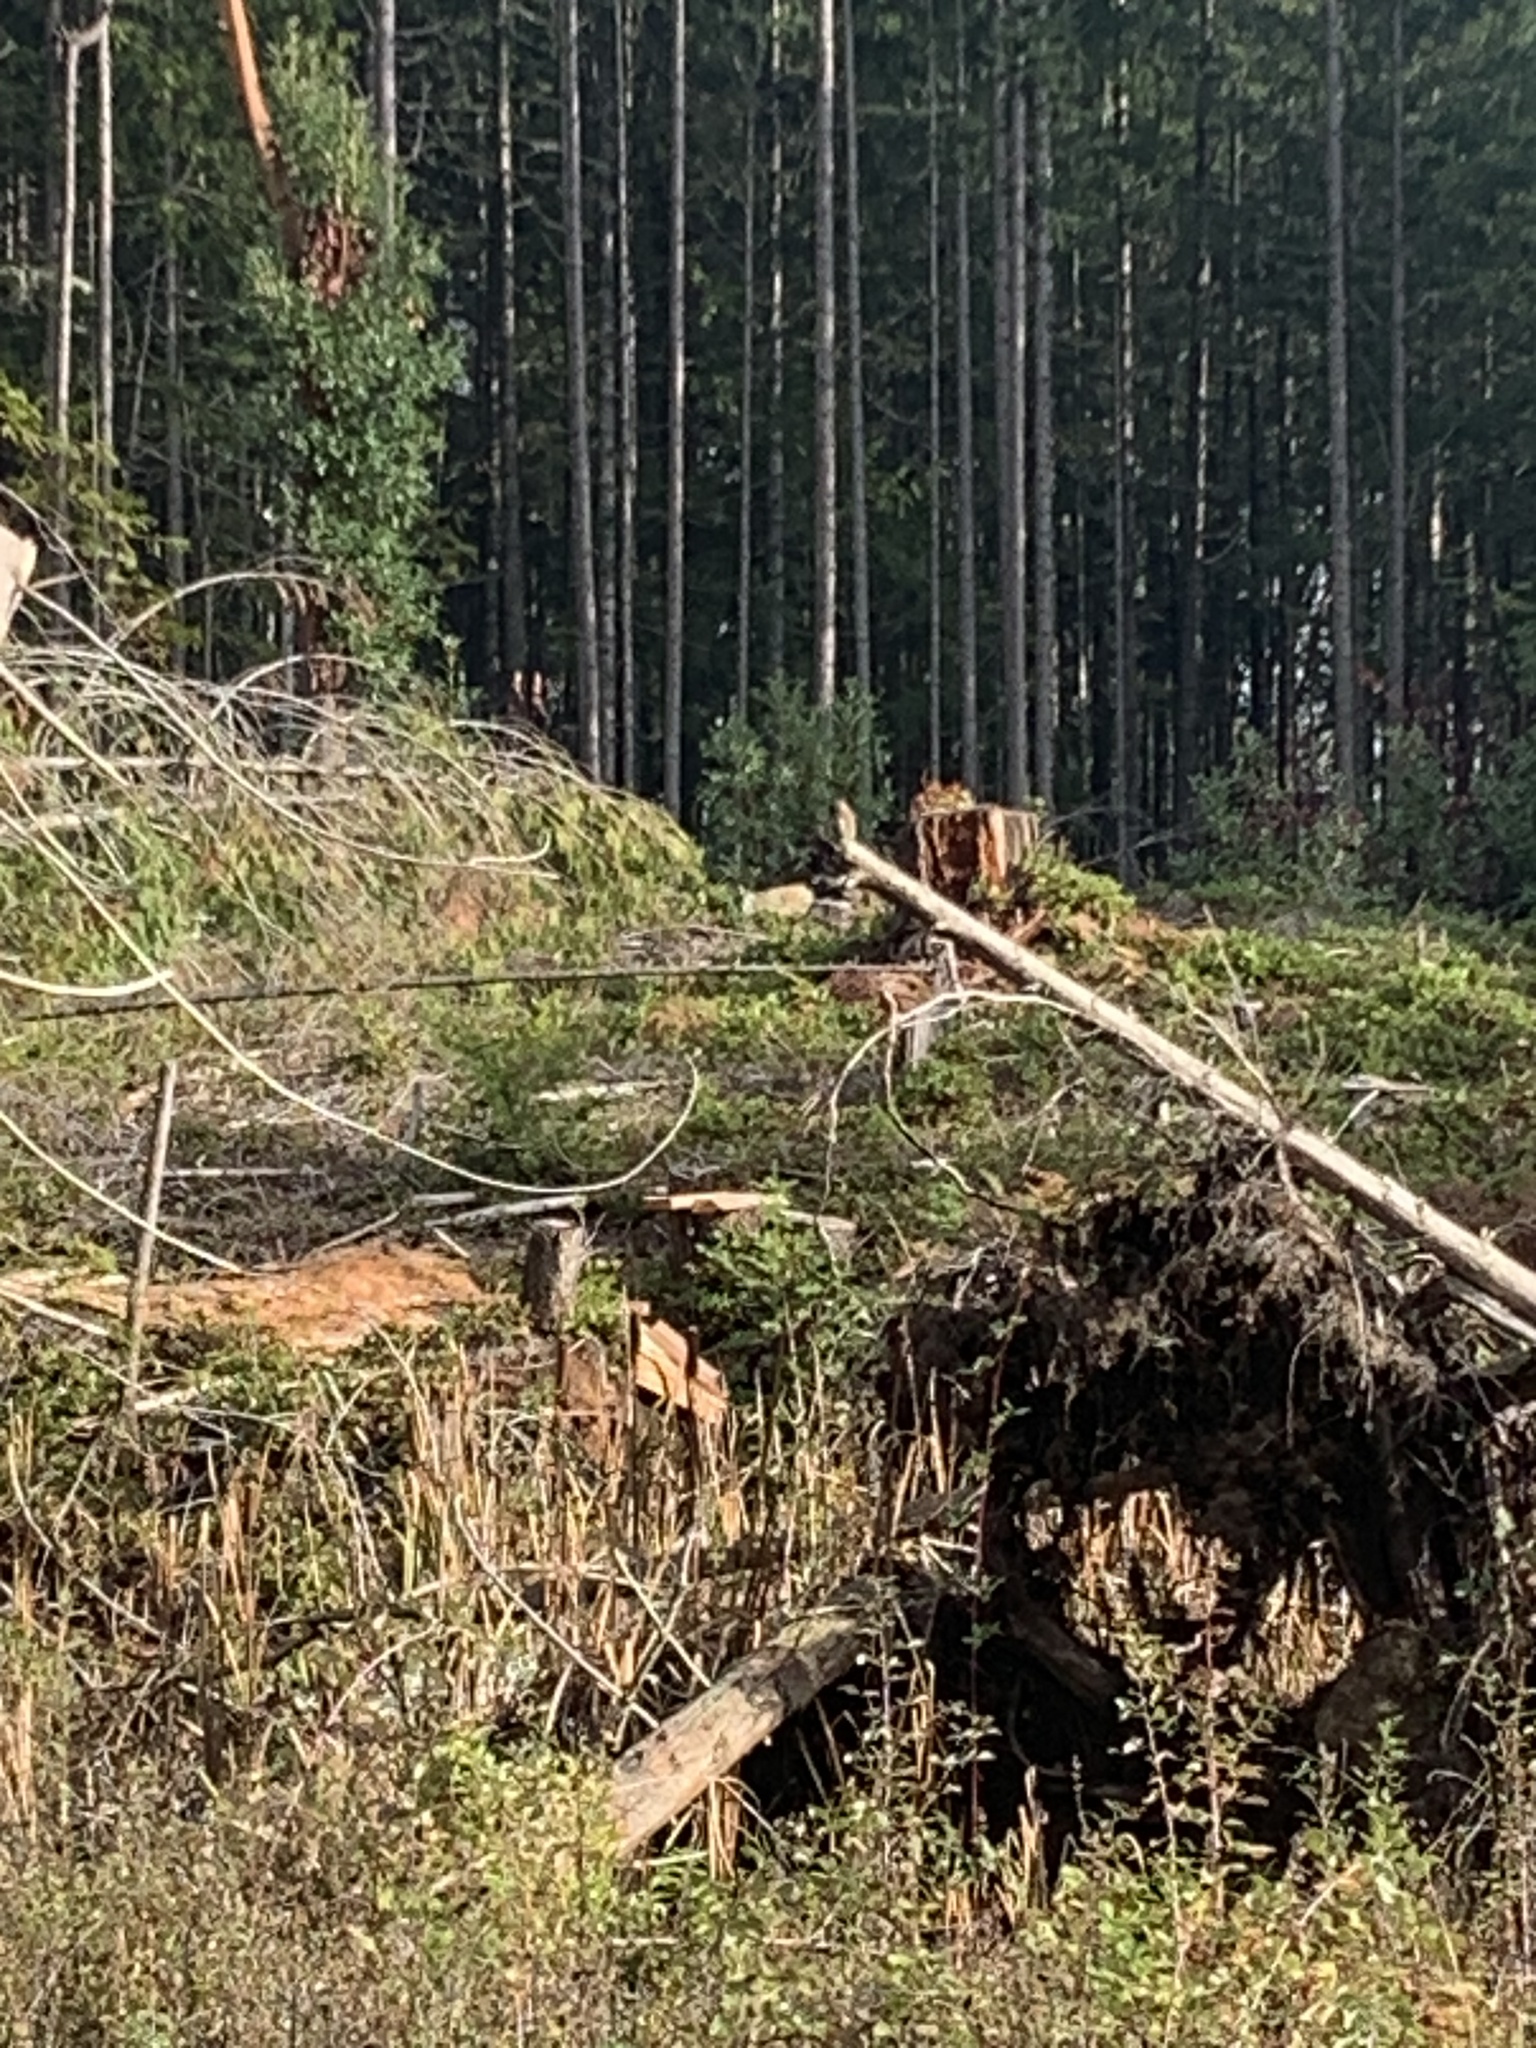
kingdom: Animalia
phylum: Chordata
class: Aves
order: Strigiformes
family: Strigidae
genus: Glaucidium
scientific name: Glaucidium californicum
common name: Northern pygmy owl
